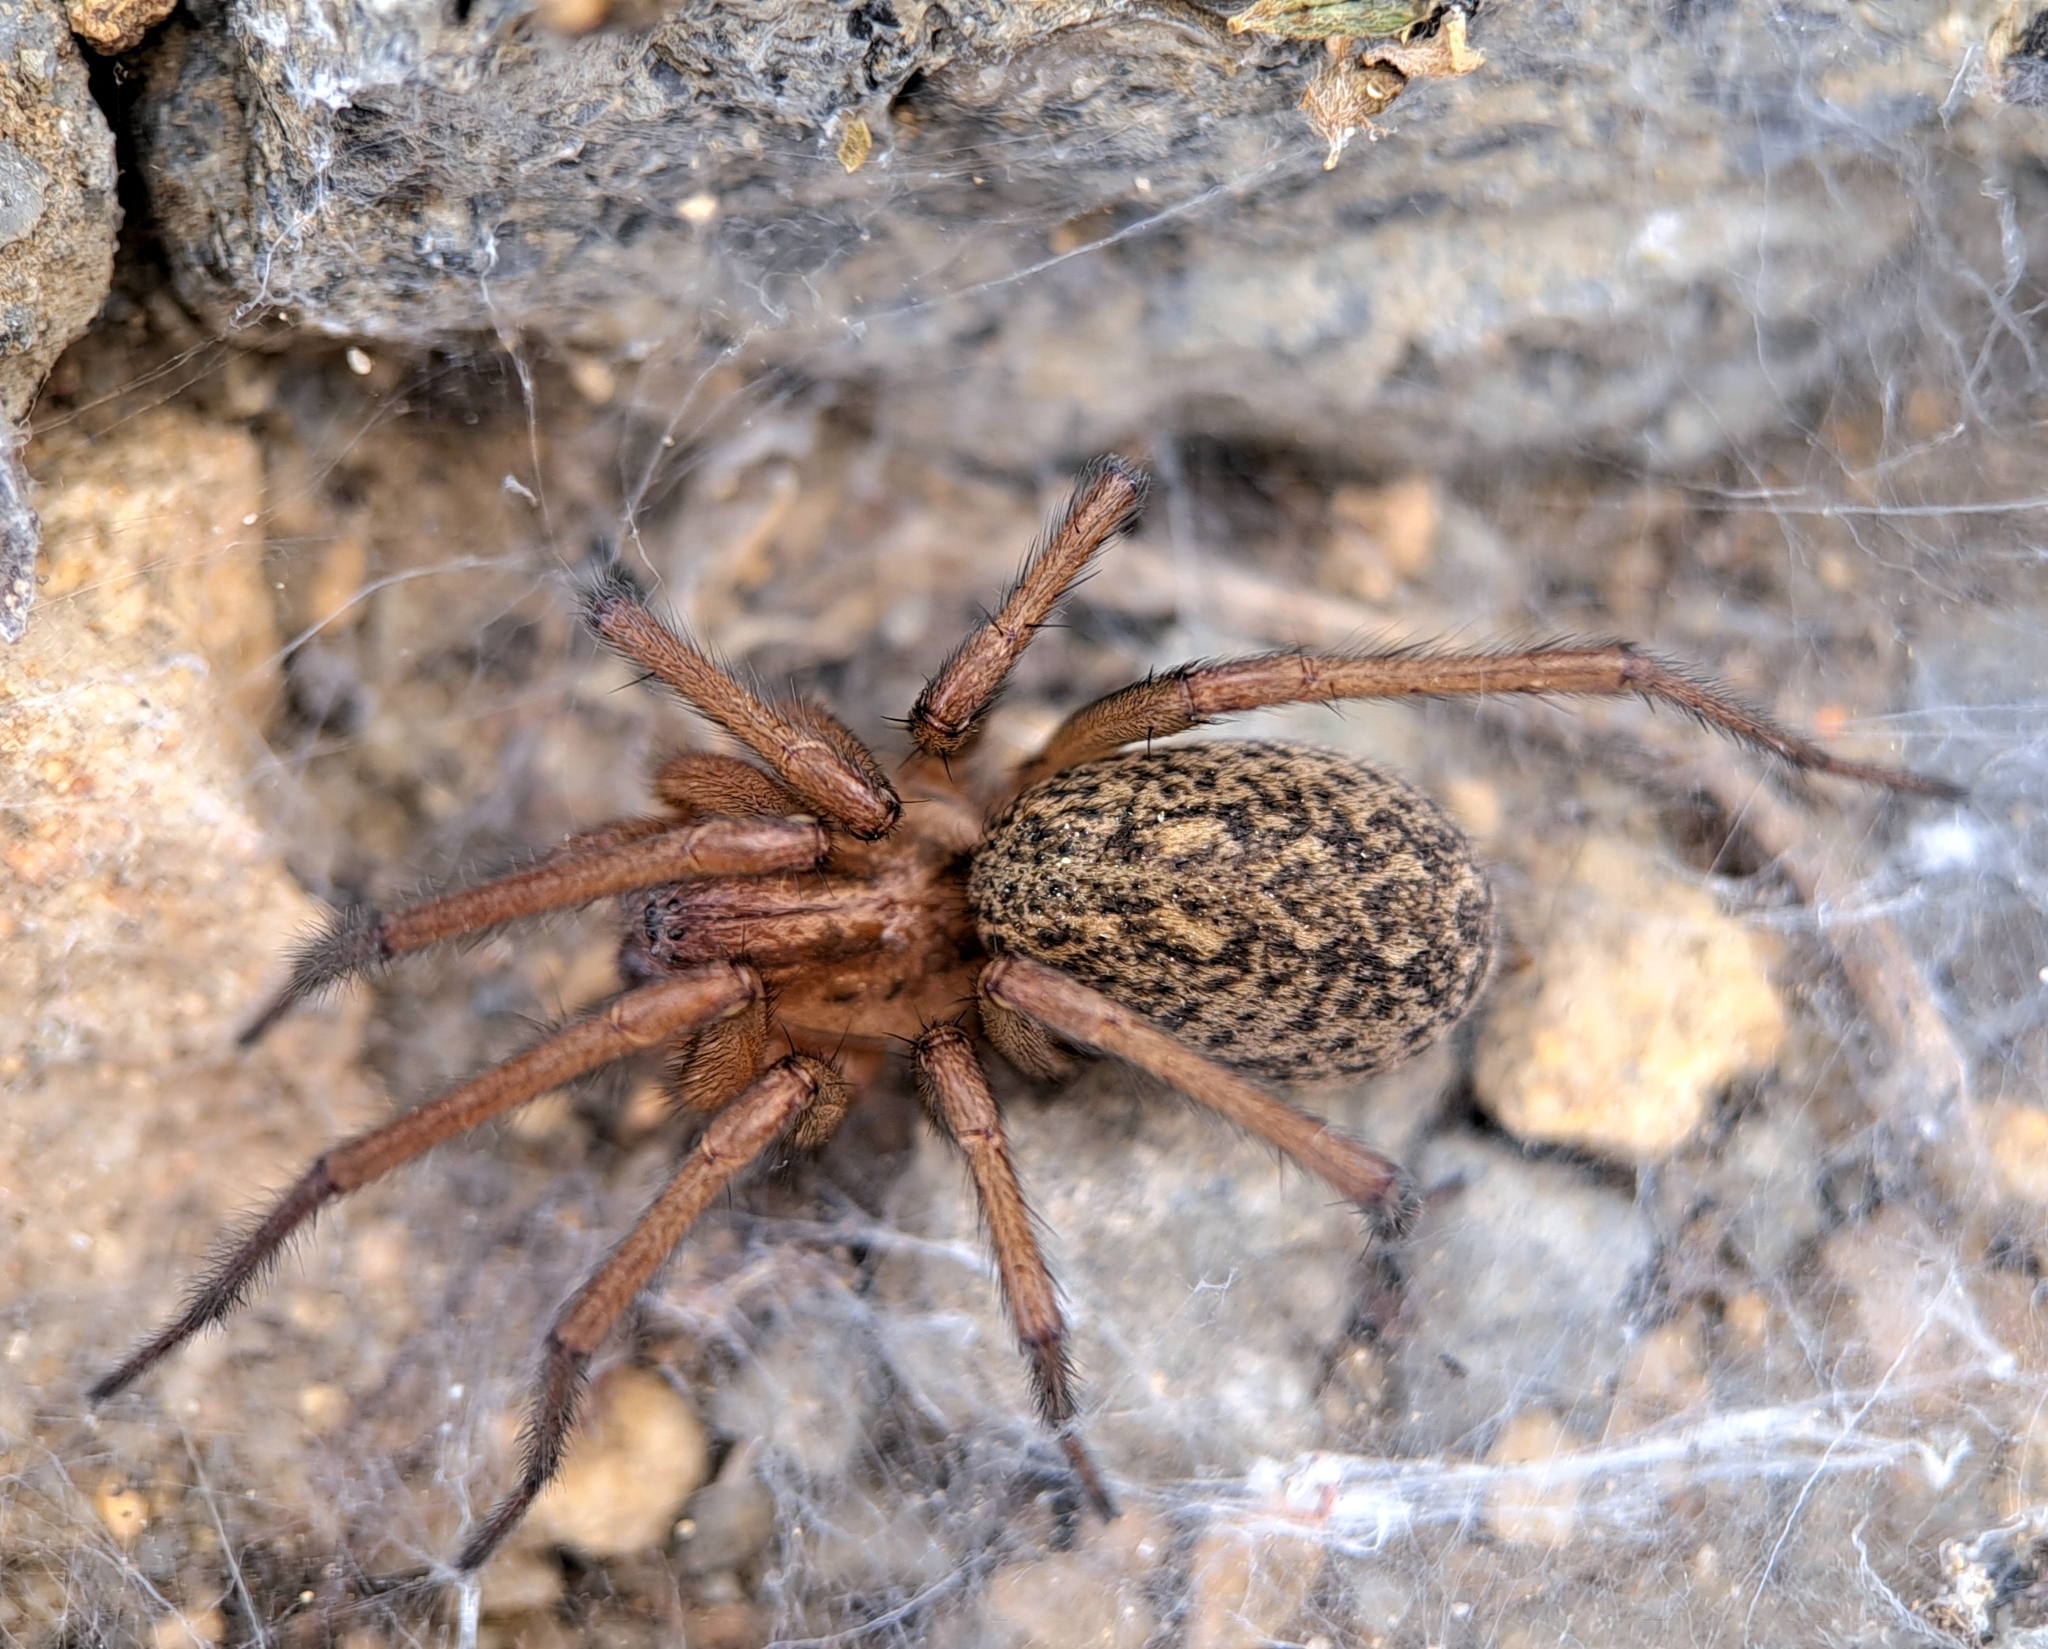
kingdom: Animalia
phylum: Arthropoda
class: Arachnida
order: Araneae
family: Agelenidae
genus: Eratigena
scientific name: Eratigena agrestis
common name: Hobo spider
